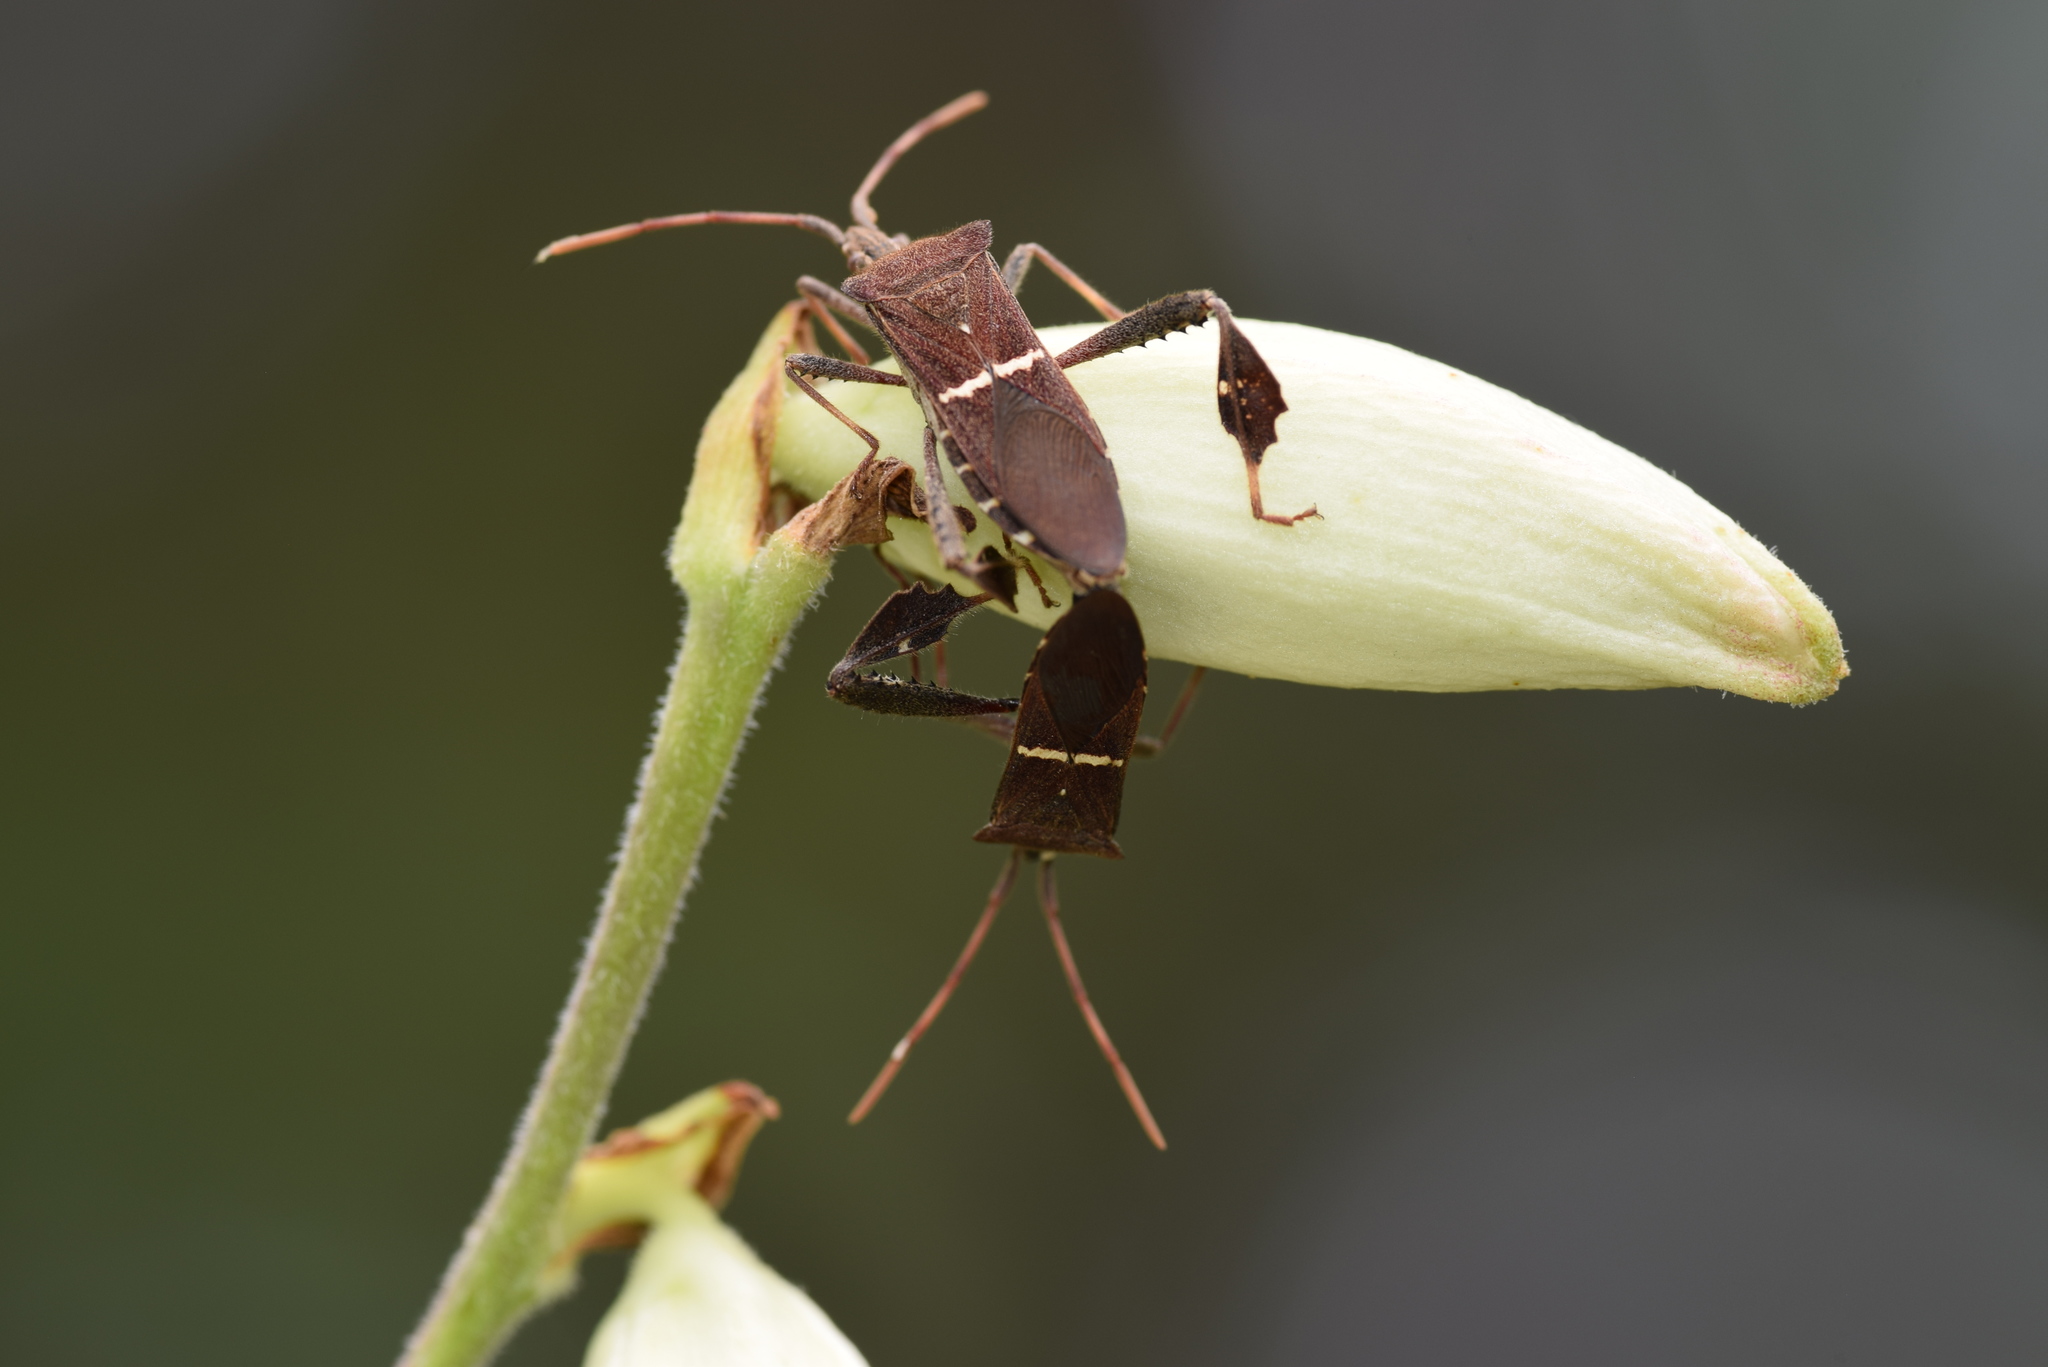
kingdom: Animalia
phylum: Arthropoda
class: Insecta
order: Hemiptera
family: Coreidae
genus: Leptoglossus
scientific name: Leptoglossus phyllopus
